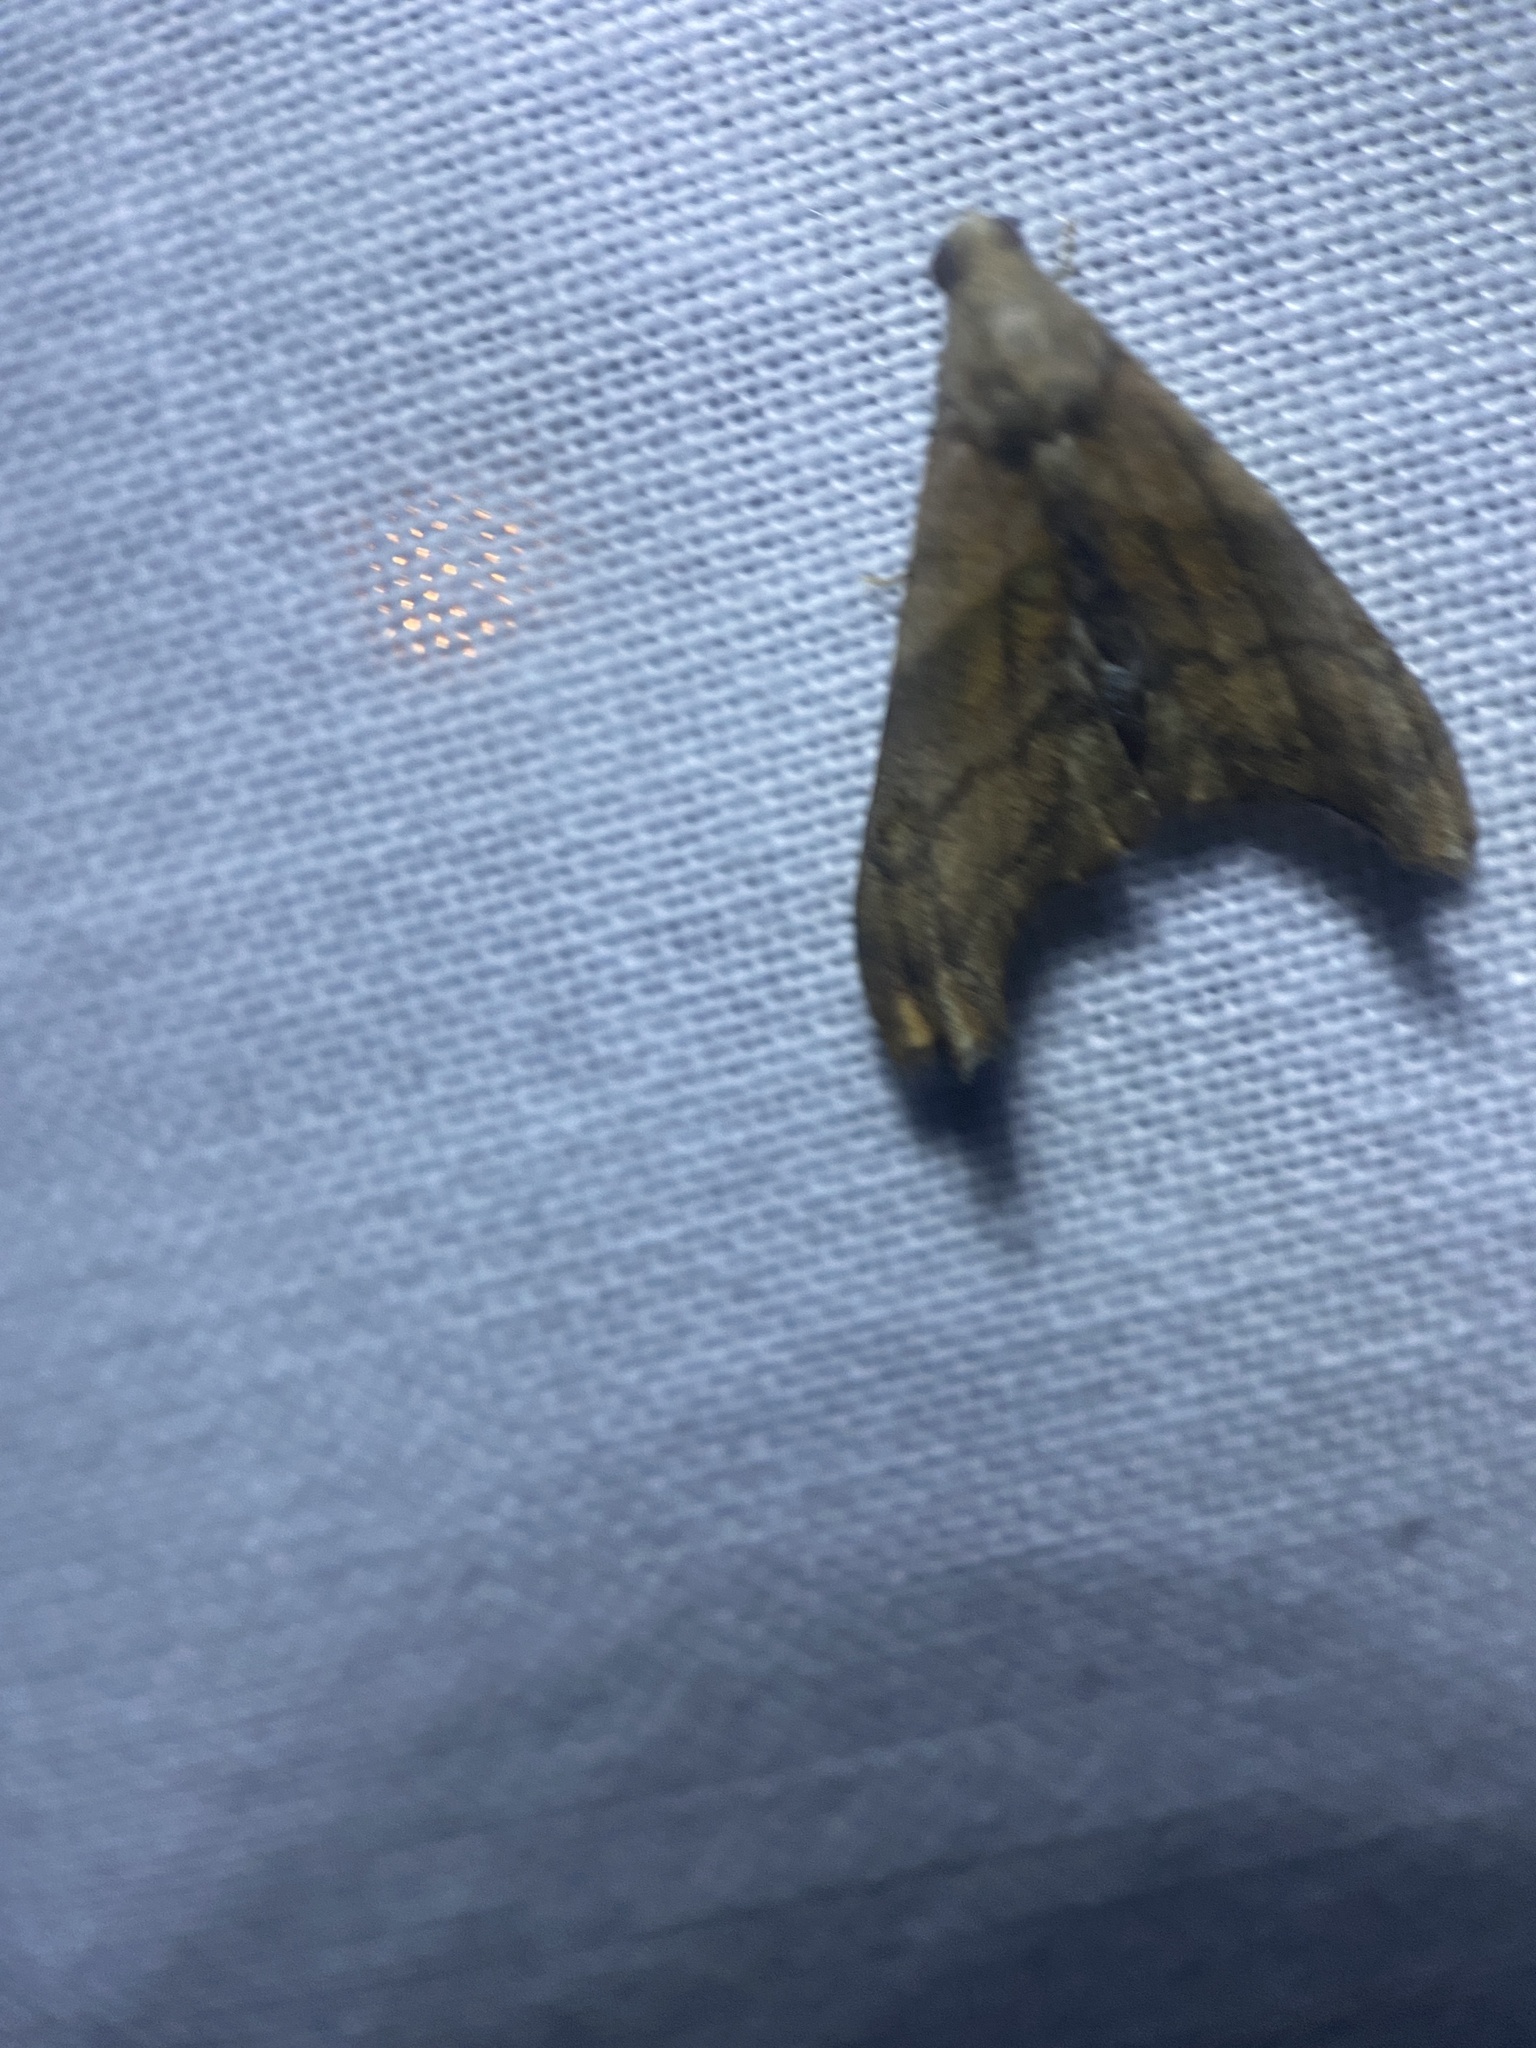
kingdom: Animalia
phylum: Arthropoda
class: Insecta
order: Lepidoptera
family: Erebidae
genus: Palthis
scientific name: Palthis angulalis
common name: Dark-spotted palthis moth
